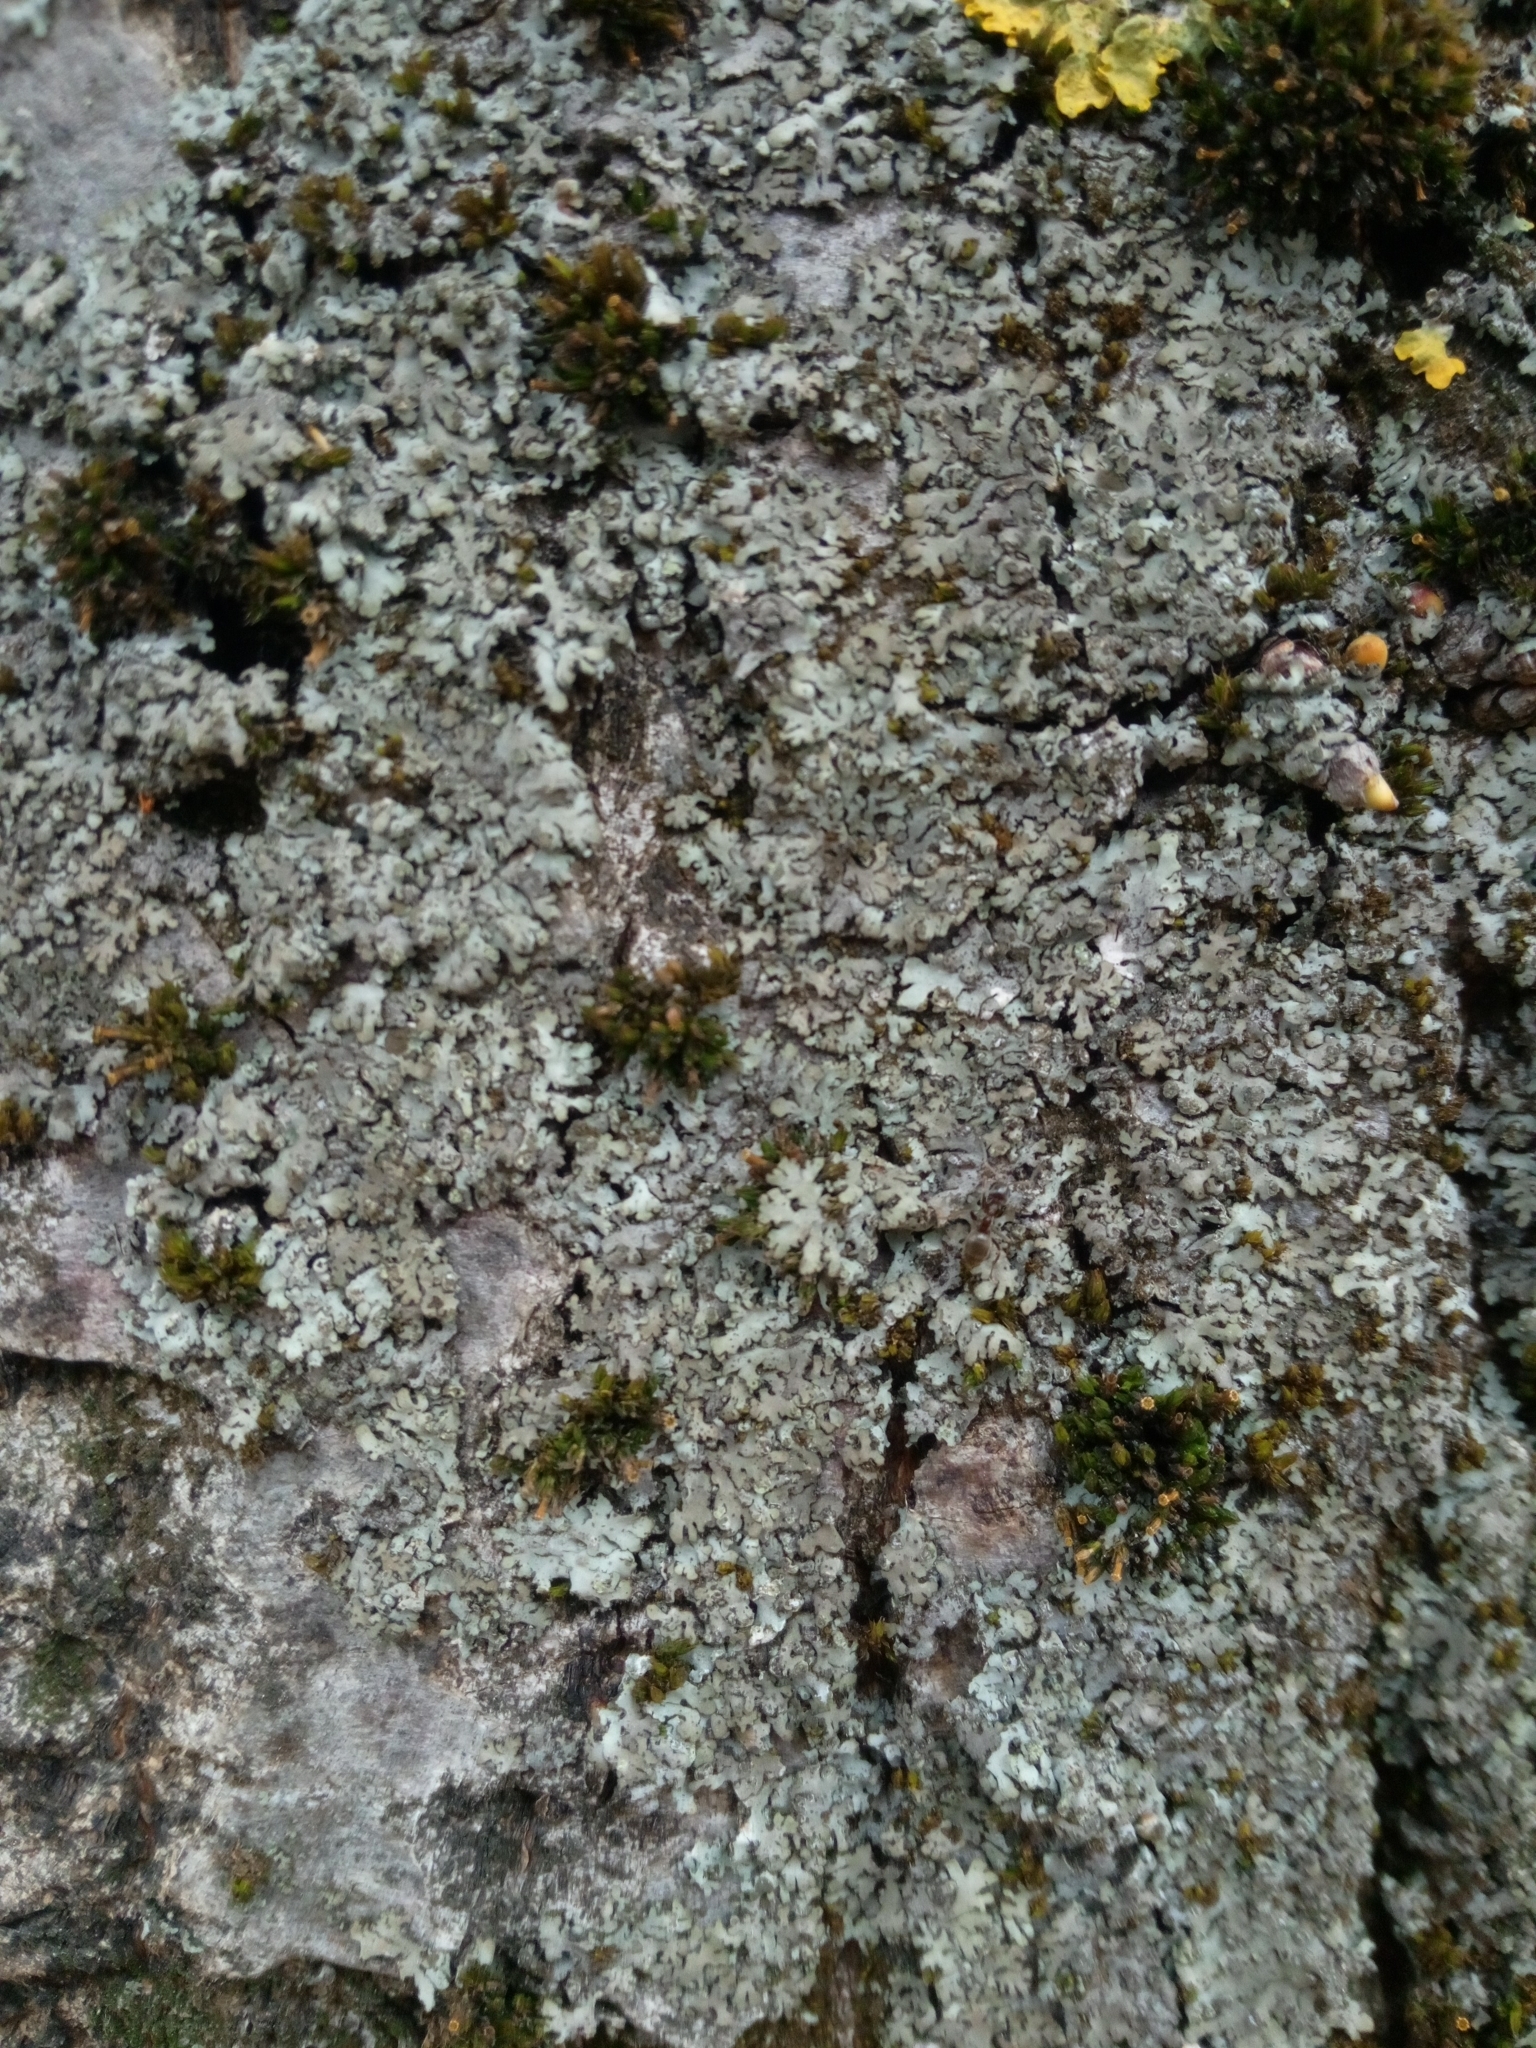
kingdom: Fungi
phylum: Ascomycota
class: Lecanoromycetes
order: Caliciales
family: Physciaceae
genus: Phaeophyscia
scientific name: Phaeophyscia orbicularis
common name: Mealy shadow lichen
